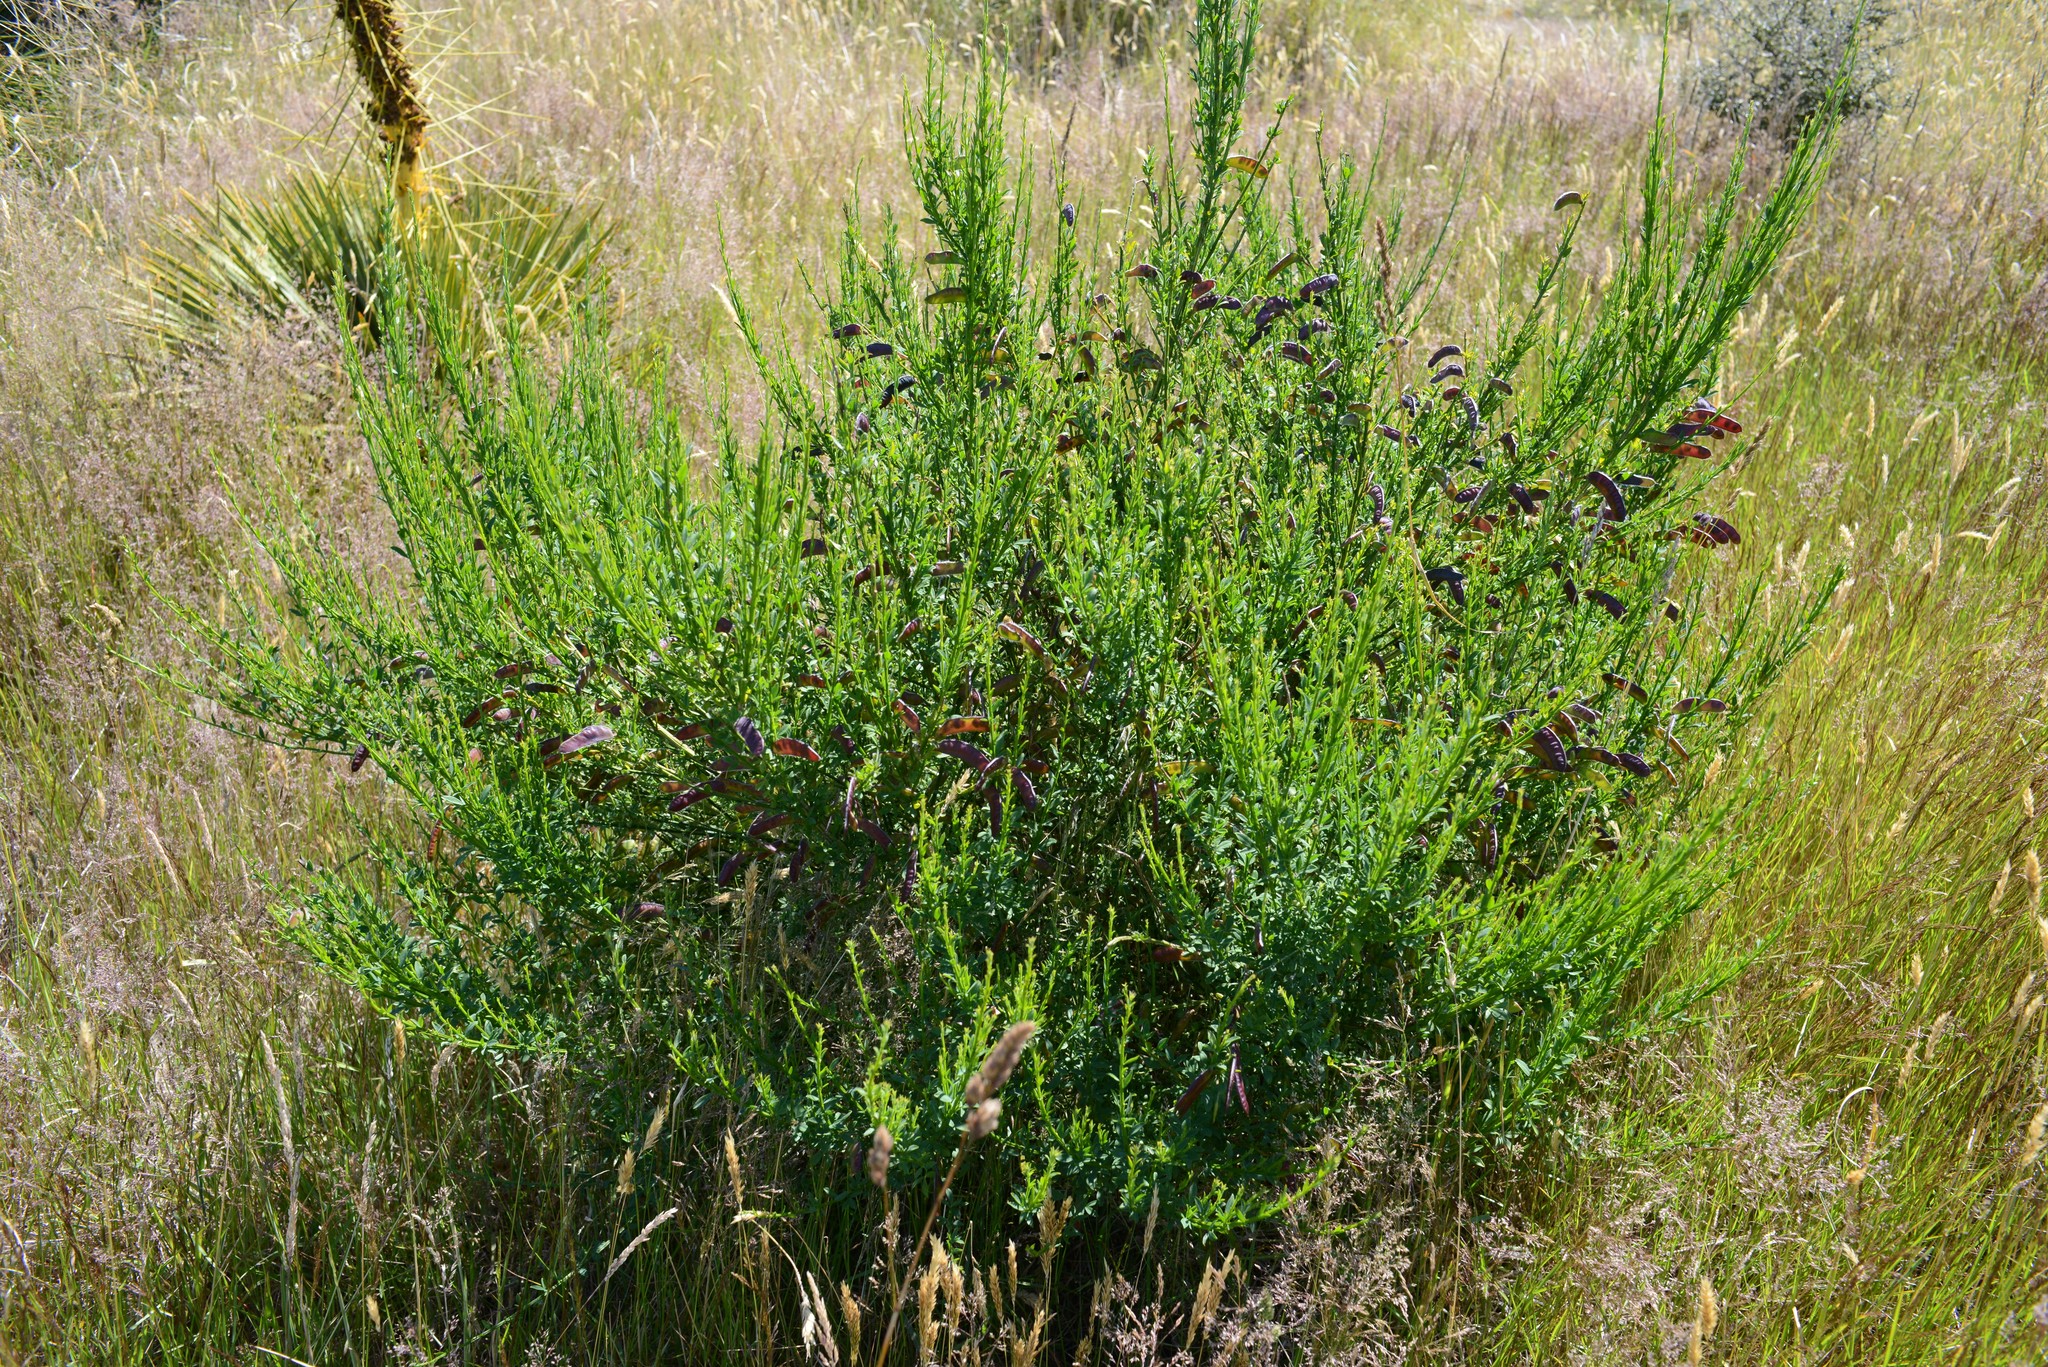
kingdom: Plantae
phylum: Tracheophyta
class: Magnoliopsida
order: Fabales
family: Fabaceae
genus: Cytisus
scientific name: Cytisus scoparius
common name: Scotch broom
